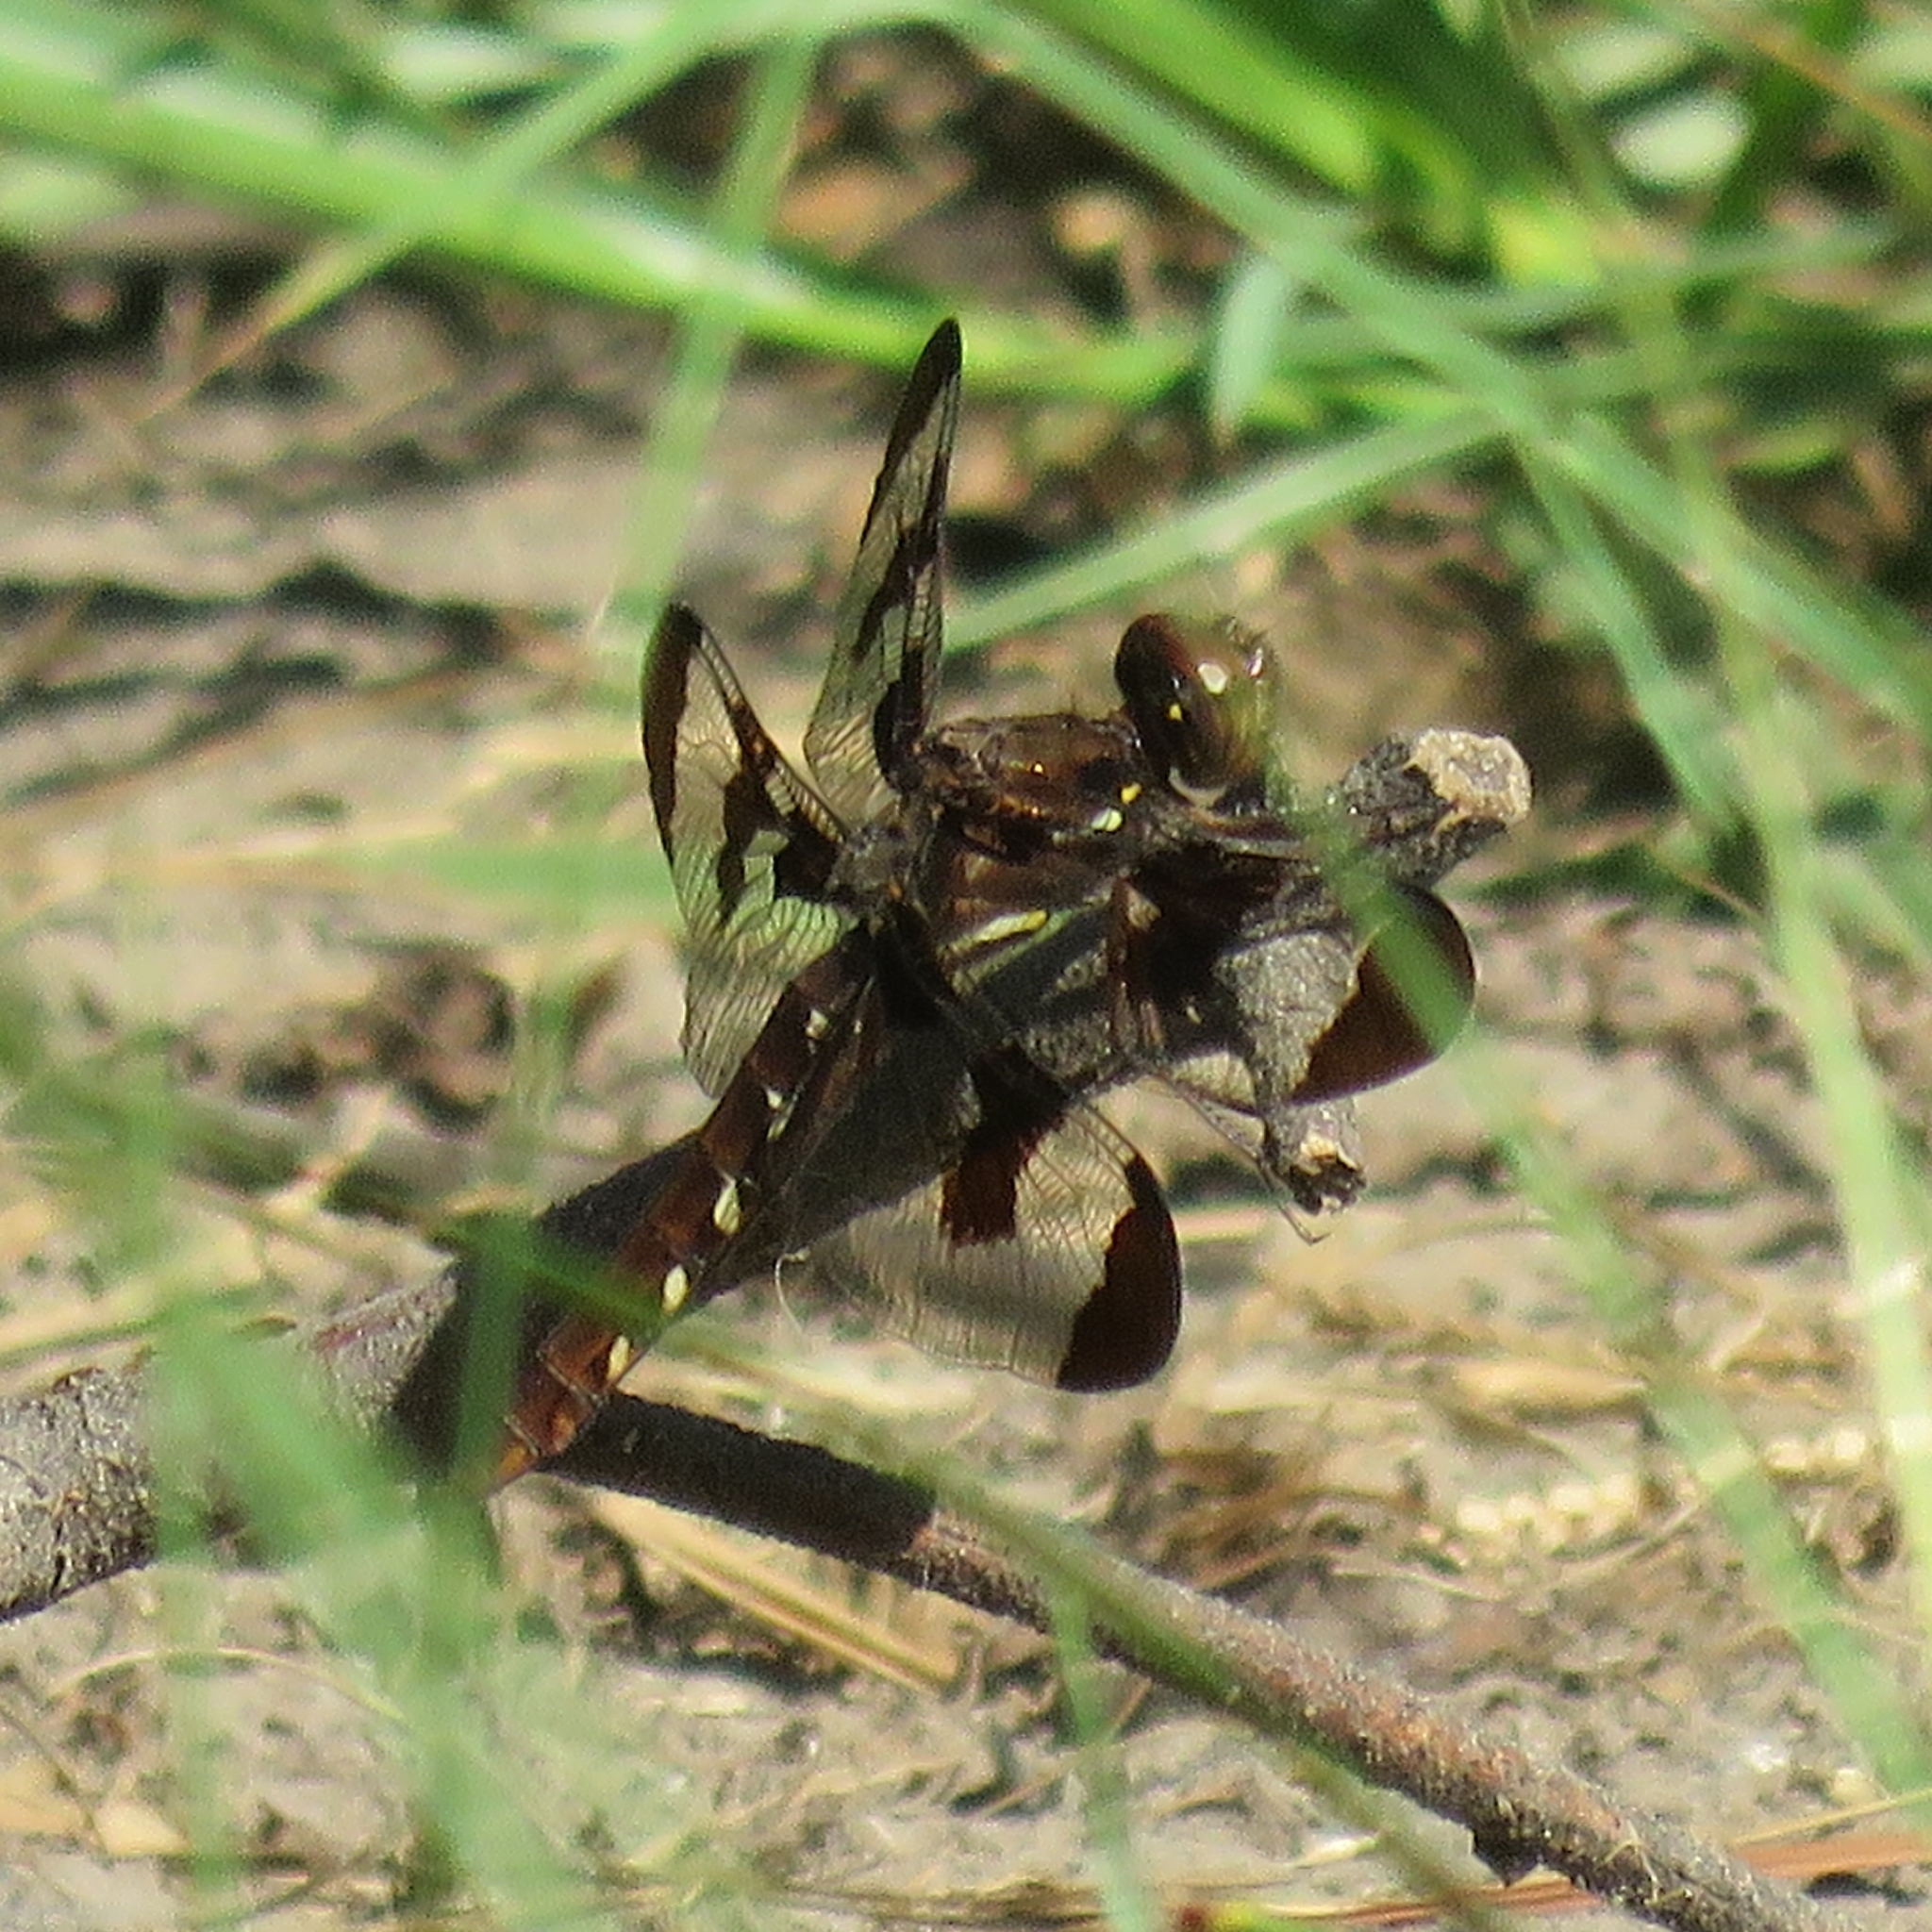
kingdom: Animalia
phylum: Arthropoda
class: Insecta
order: Odonata
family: Libellulidae
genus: Plathemis
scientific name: Plathemis lydia
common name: Common whitetail
